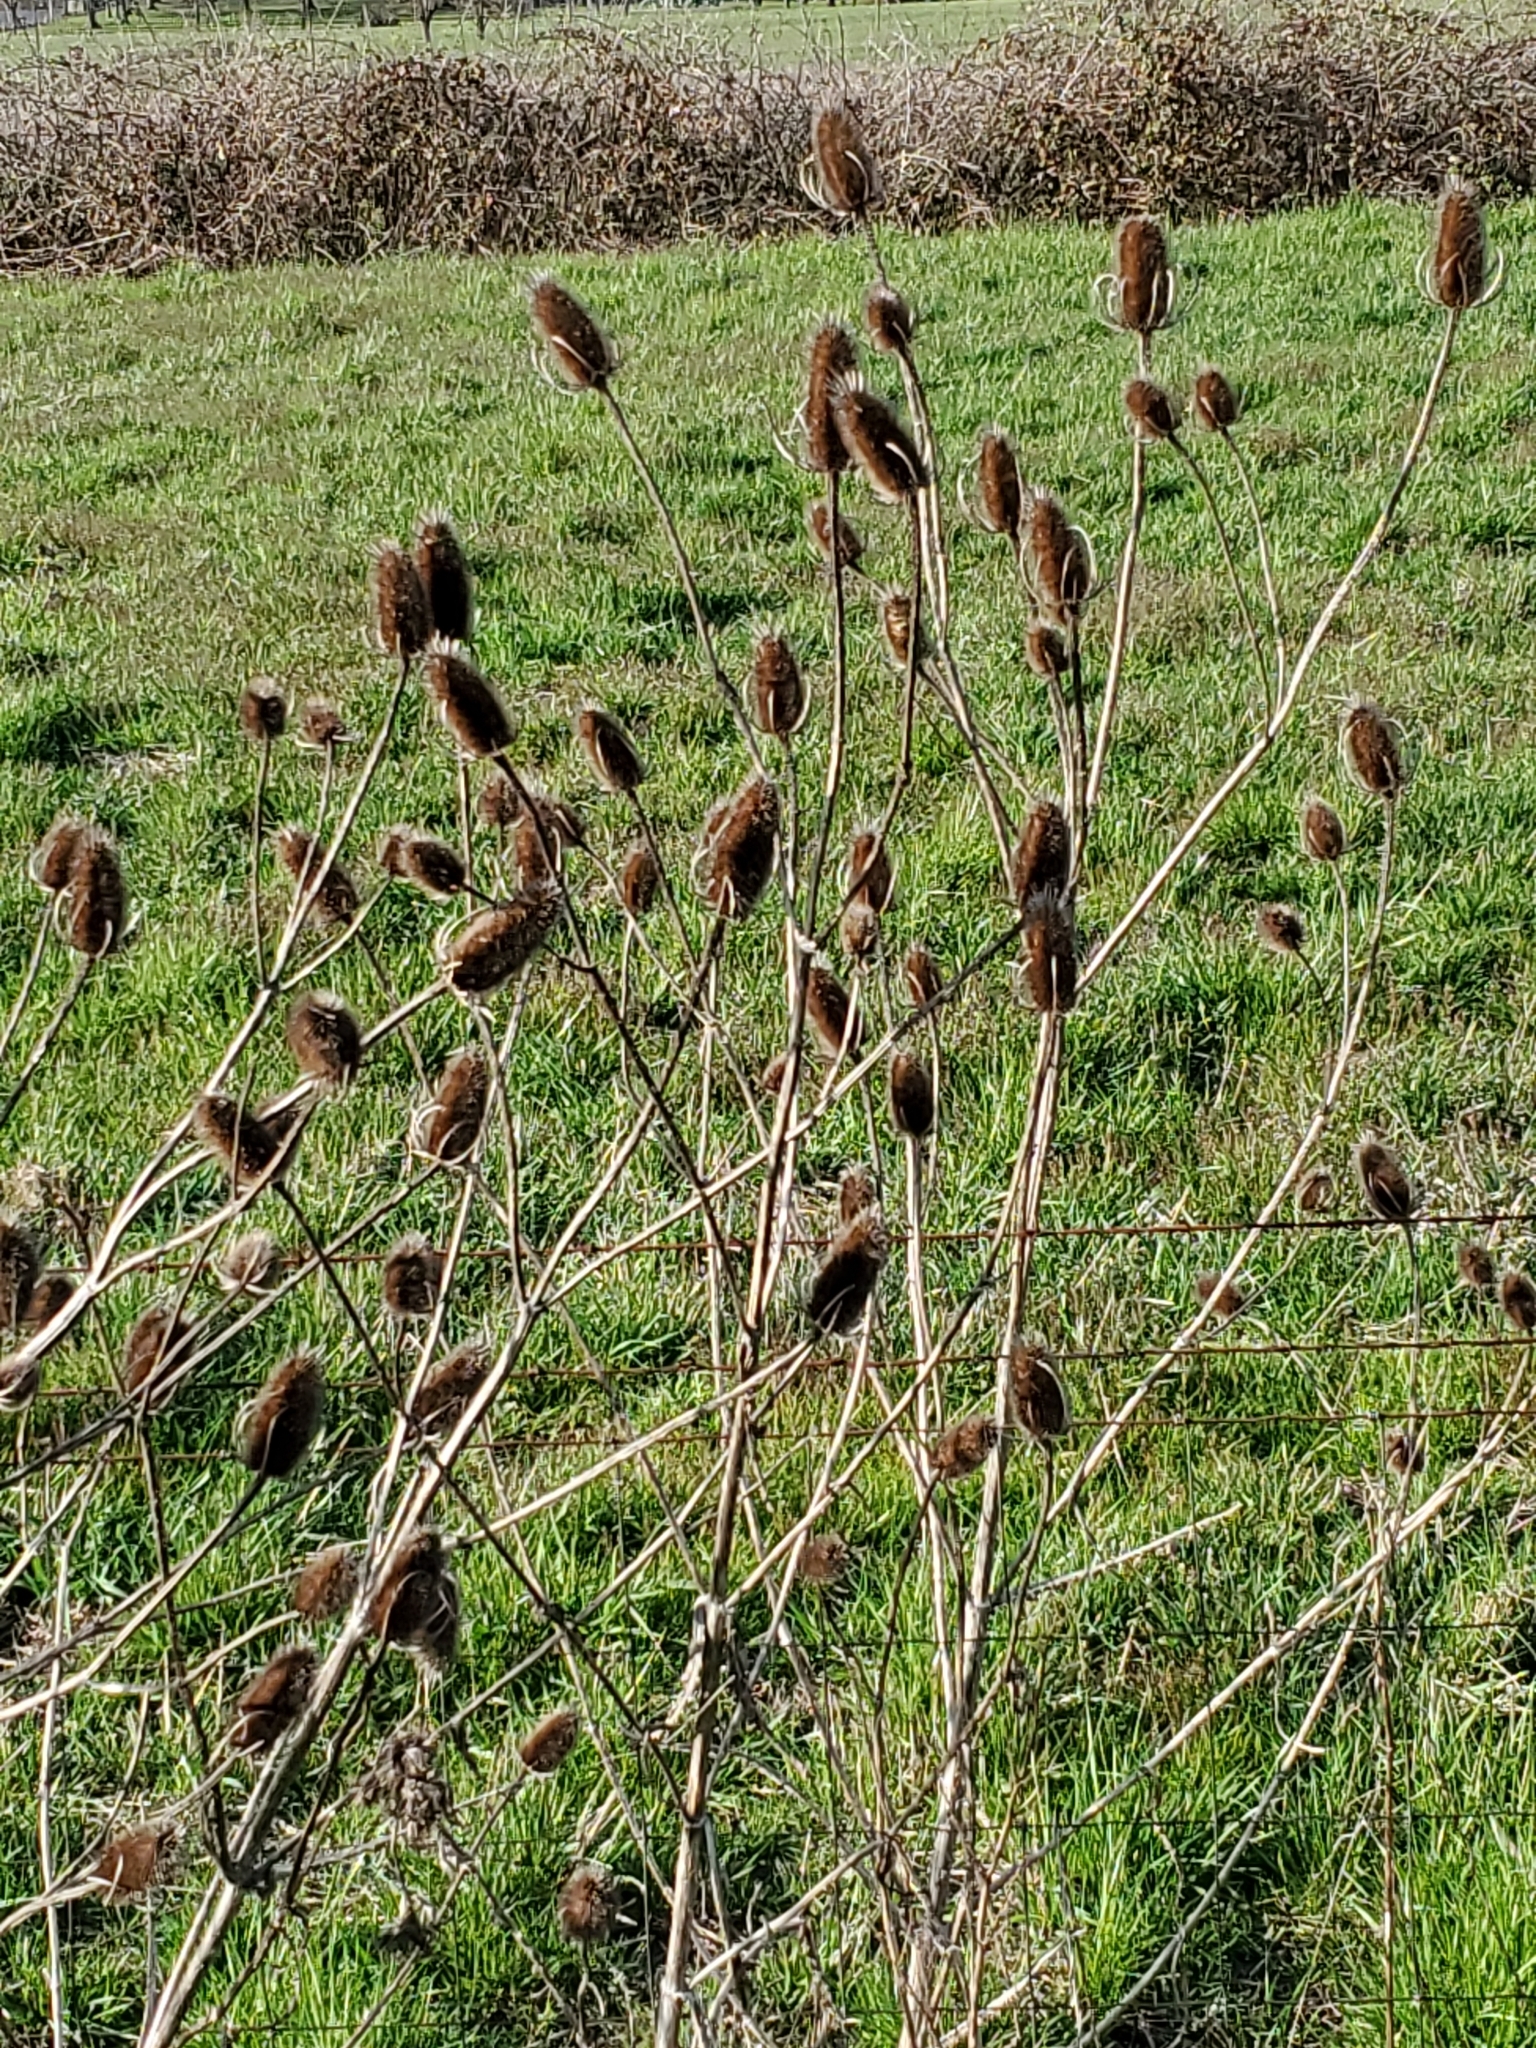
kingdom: Plantae
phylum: Tracheophyta
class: Magnoliopsida
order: Dipsacales
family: Caprifoliaceae
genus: Dipsacus
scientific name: Dipsacus fullonum
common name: Teasel
